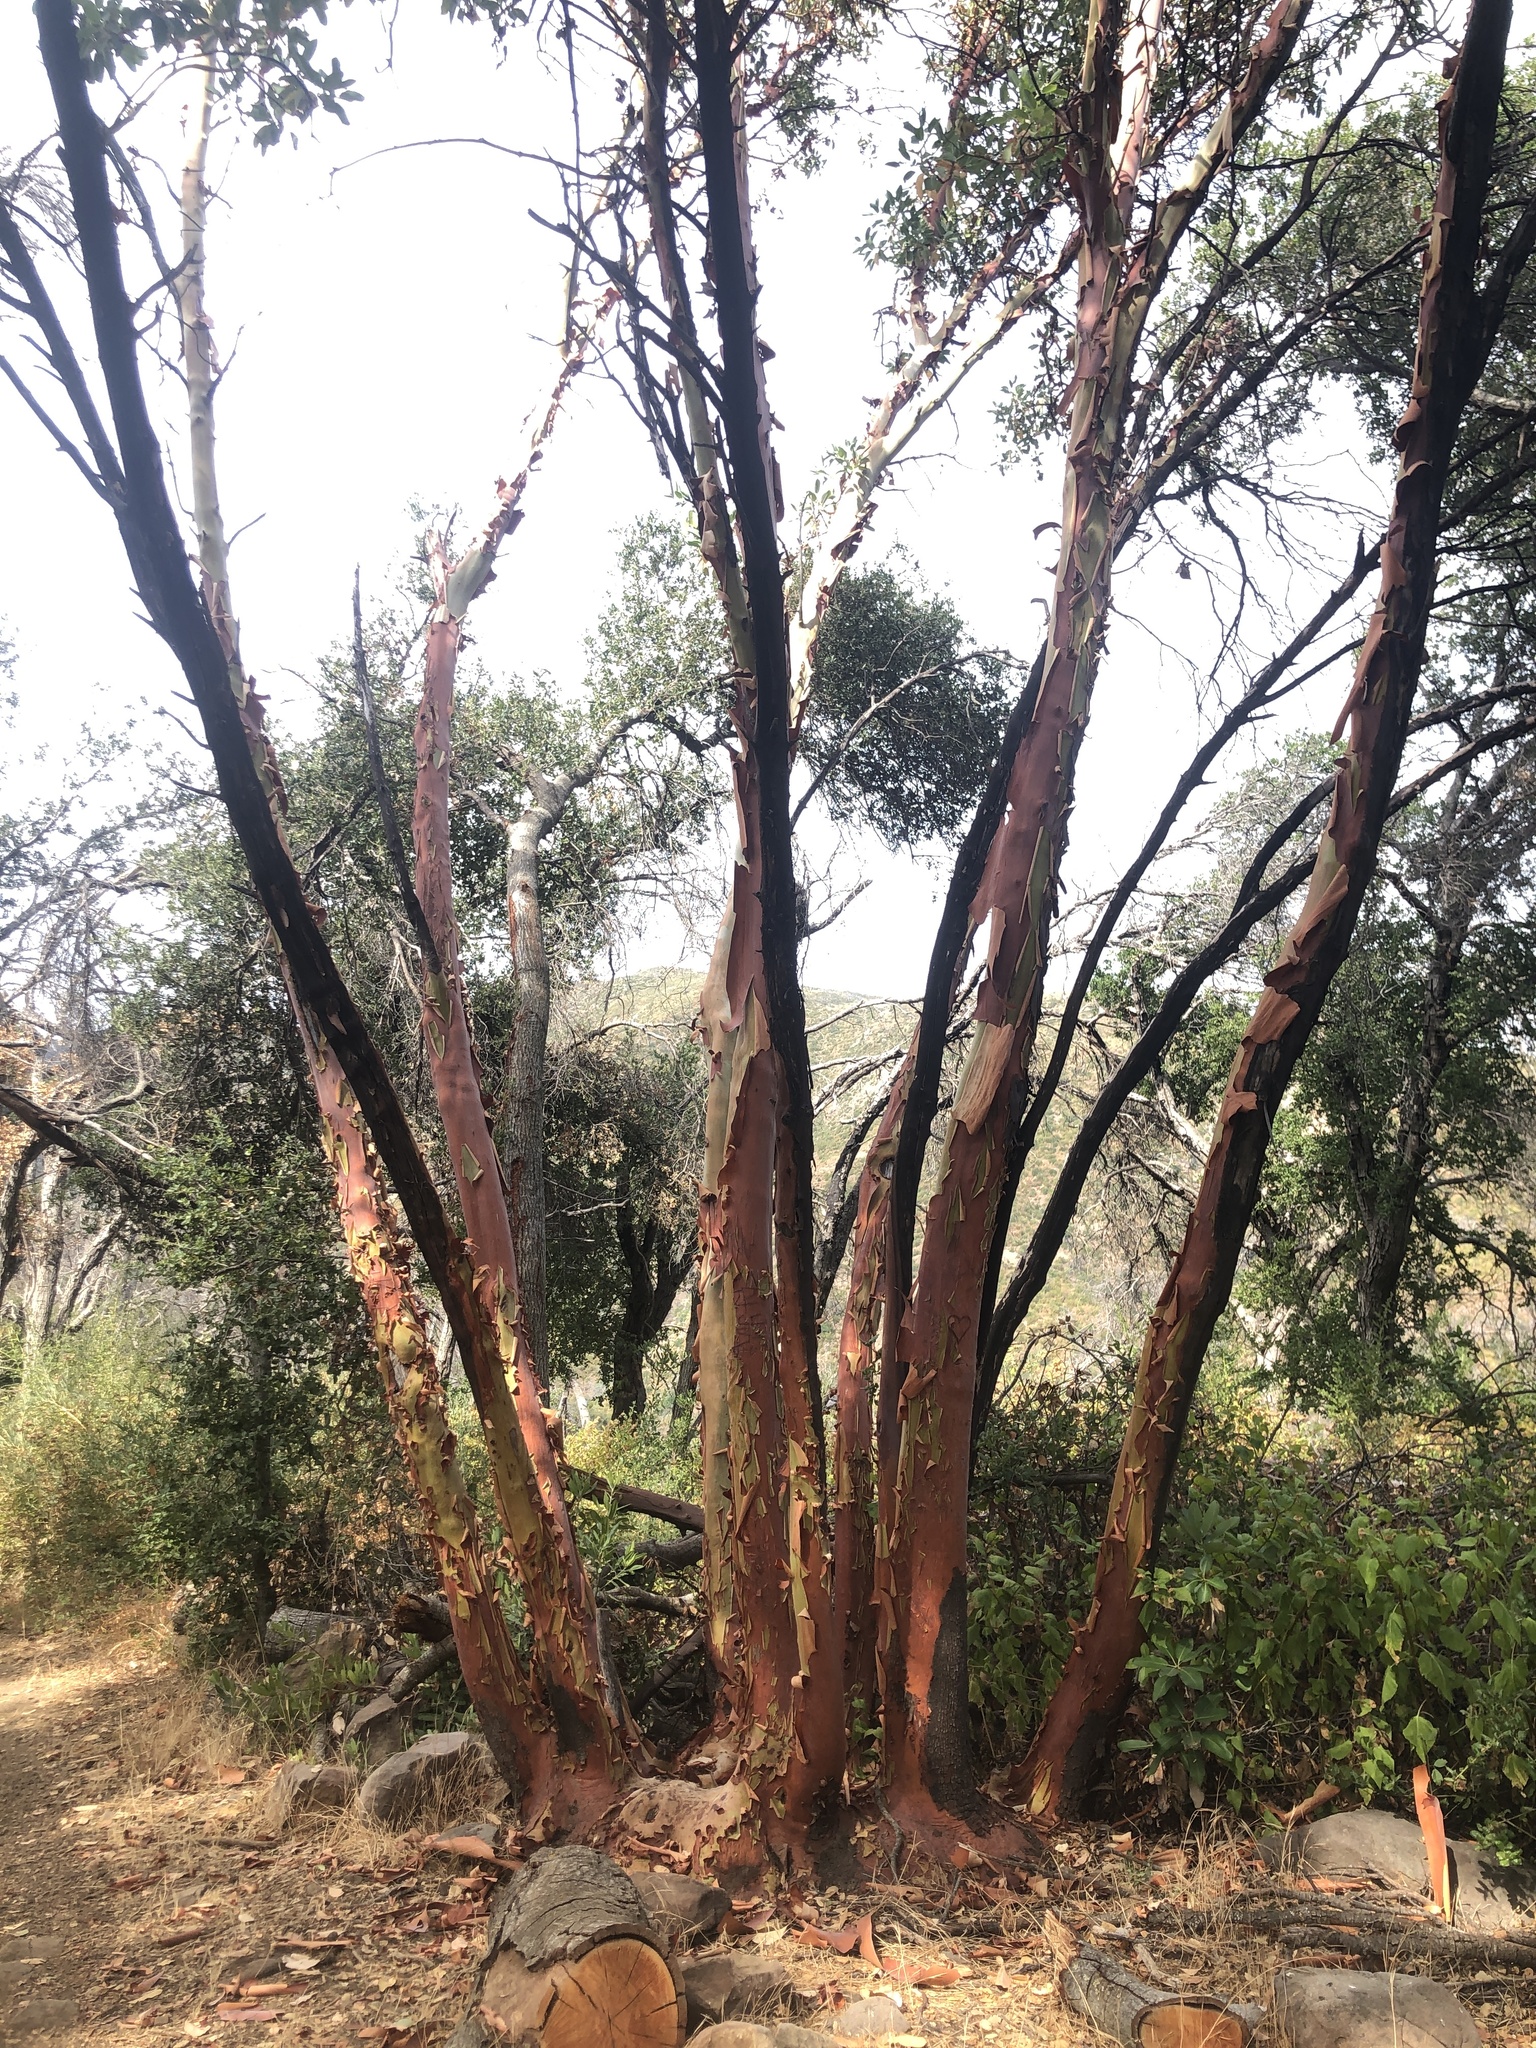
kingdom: Plantae
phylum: Tracheophyta
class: Magnoliopsida
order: Ericales
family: Ericaceae
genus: Arbutus
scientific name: Arbutus menziesii
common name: Pacific madrone
